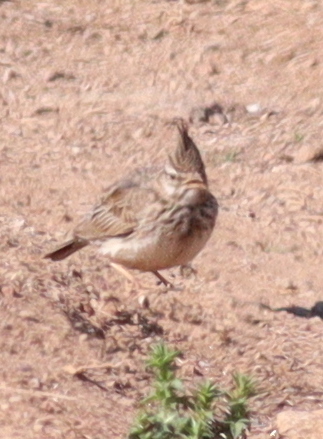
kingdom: Animalia
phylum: Chordata
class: Aves
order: Passeriformes
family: Alaudidae
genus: Galerida
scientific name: Galerida cristata
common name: Crested lark
